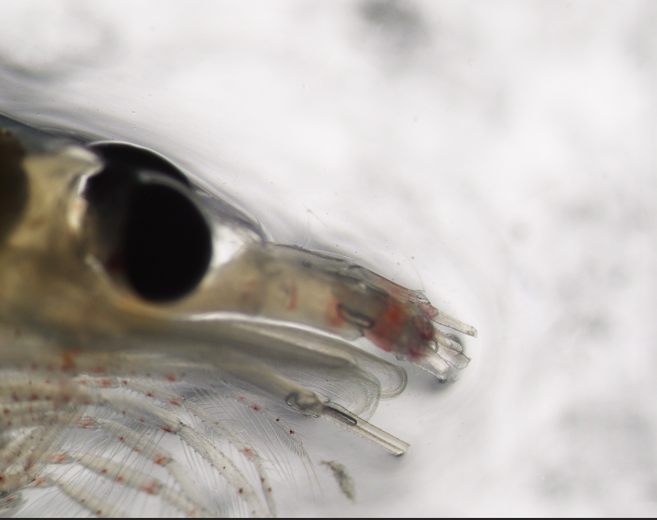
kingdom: Animalia
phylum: Arthropoda
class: Malacostraca
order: Euphausiacea
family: Euphausiidae
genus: Meganyctiphanes
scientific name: Meganyctiphanes norvegica
